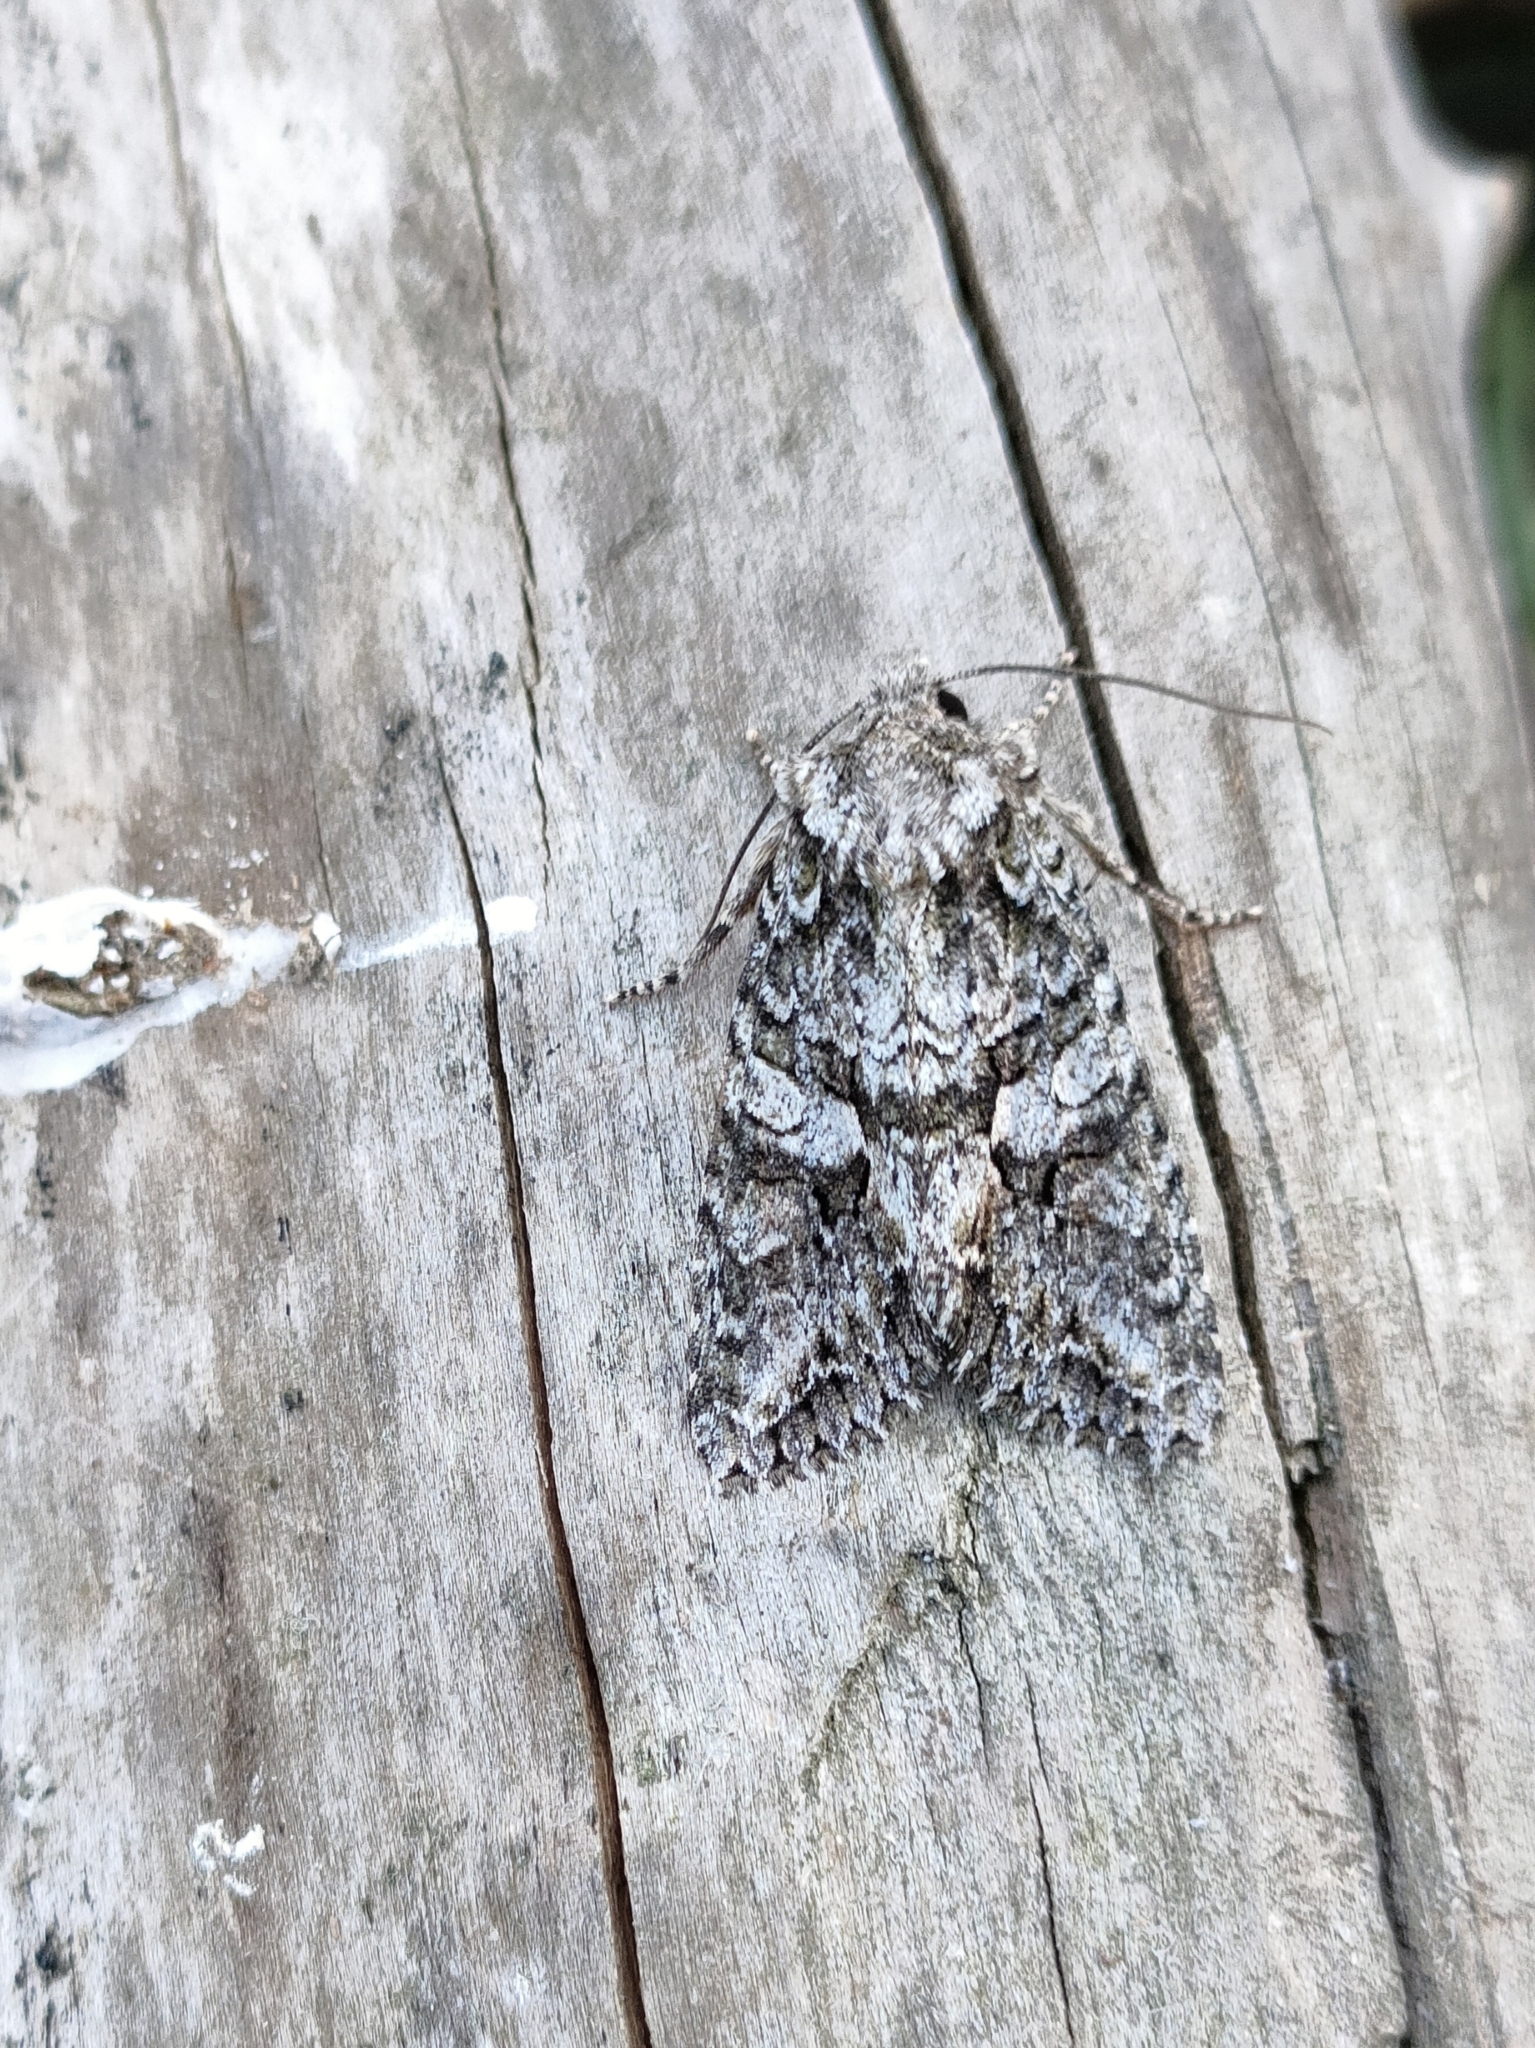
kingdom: Animalia
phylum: Arthropoda
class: Insecta
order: Lepidoptera
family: Noctuidae
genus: Dryobotodes
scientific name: Dryobotodes eremita
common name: Brindled green
